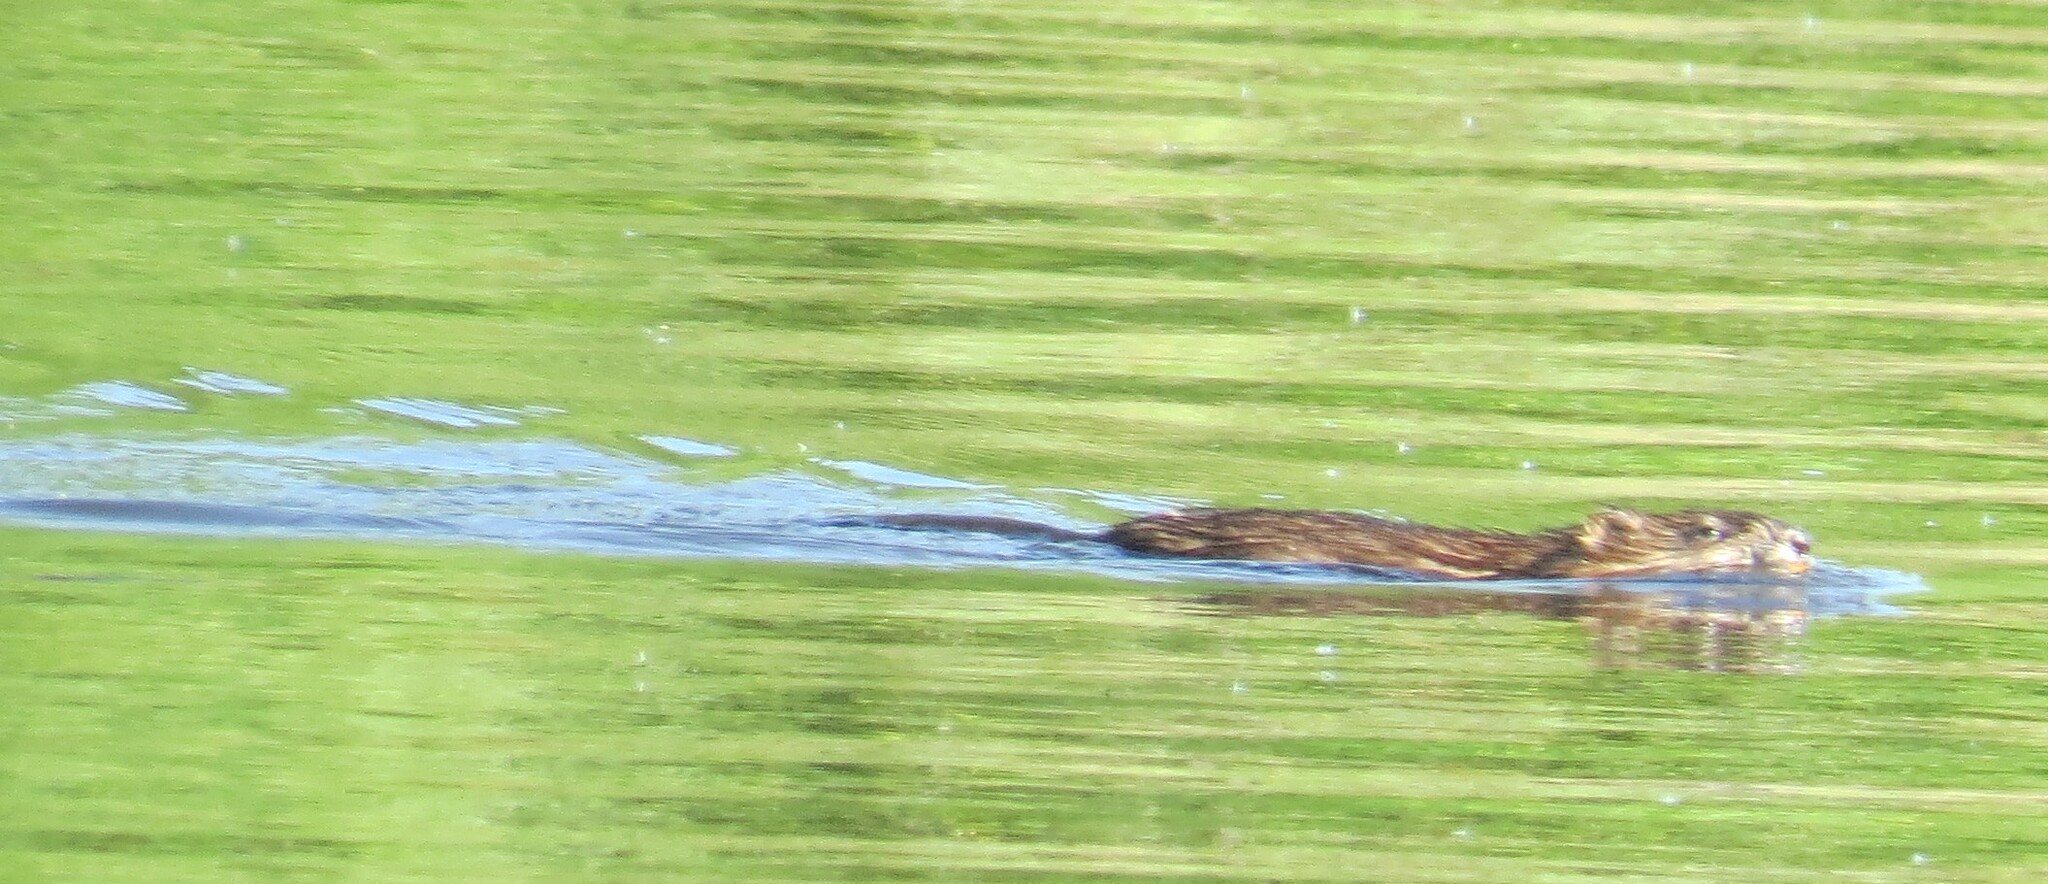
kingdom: Animalia
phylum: Chordata
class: Mammalia
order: Rodentia
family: Cricetidae
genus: Ondatra
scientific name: Ondatra zibethicus
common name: Muskrat
